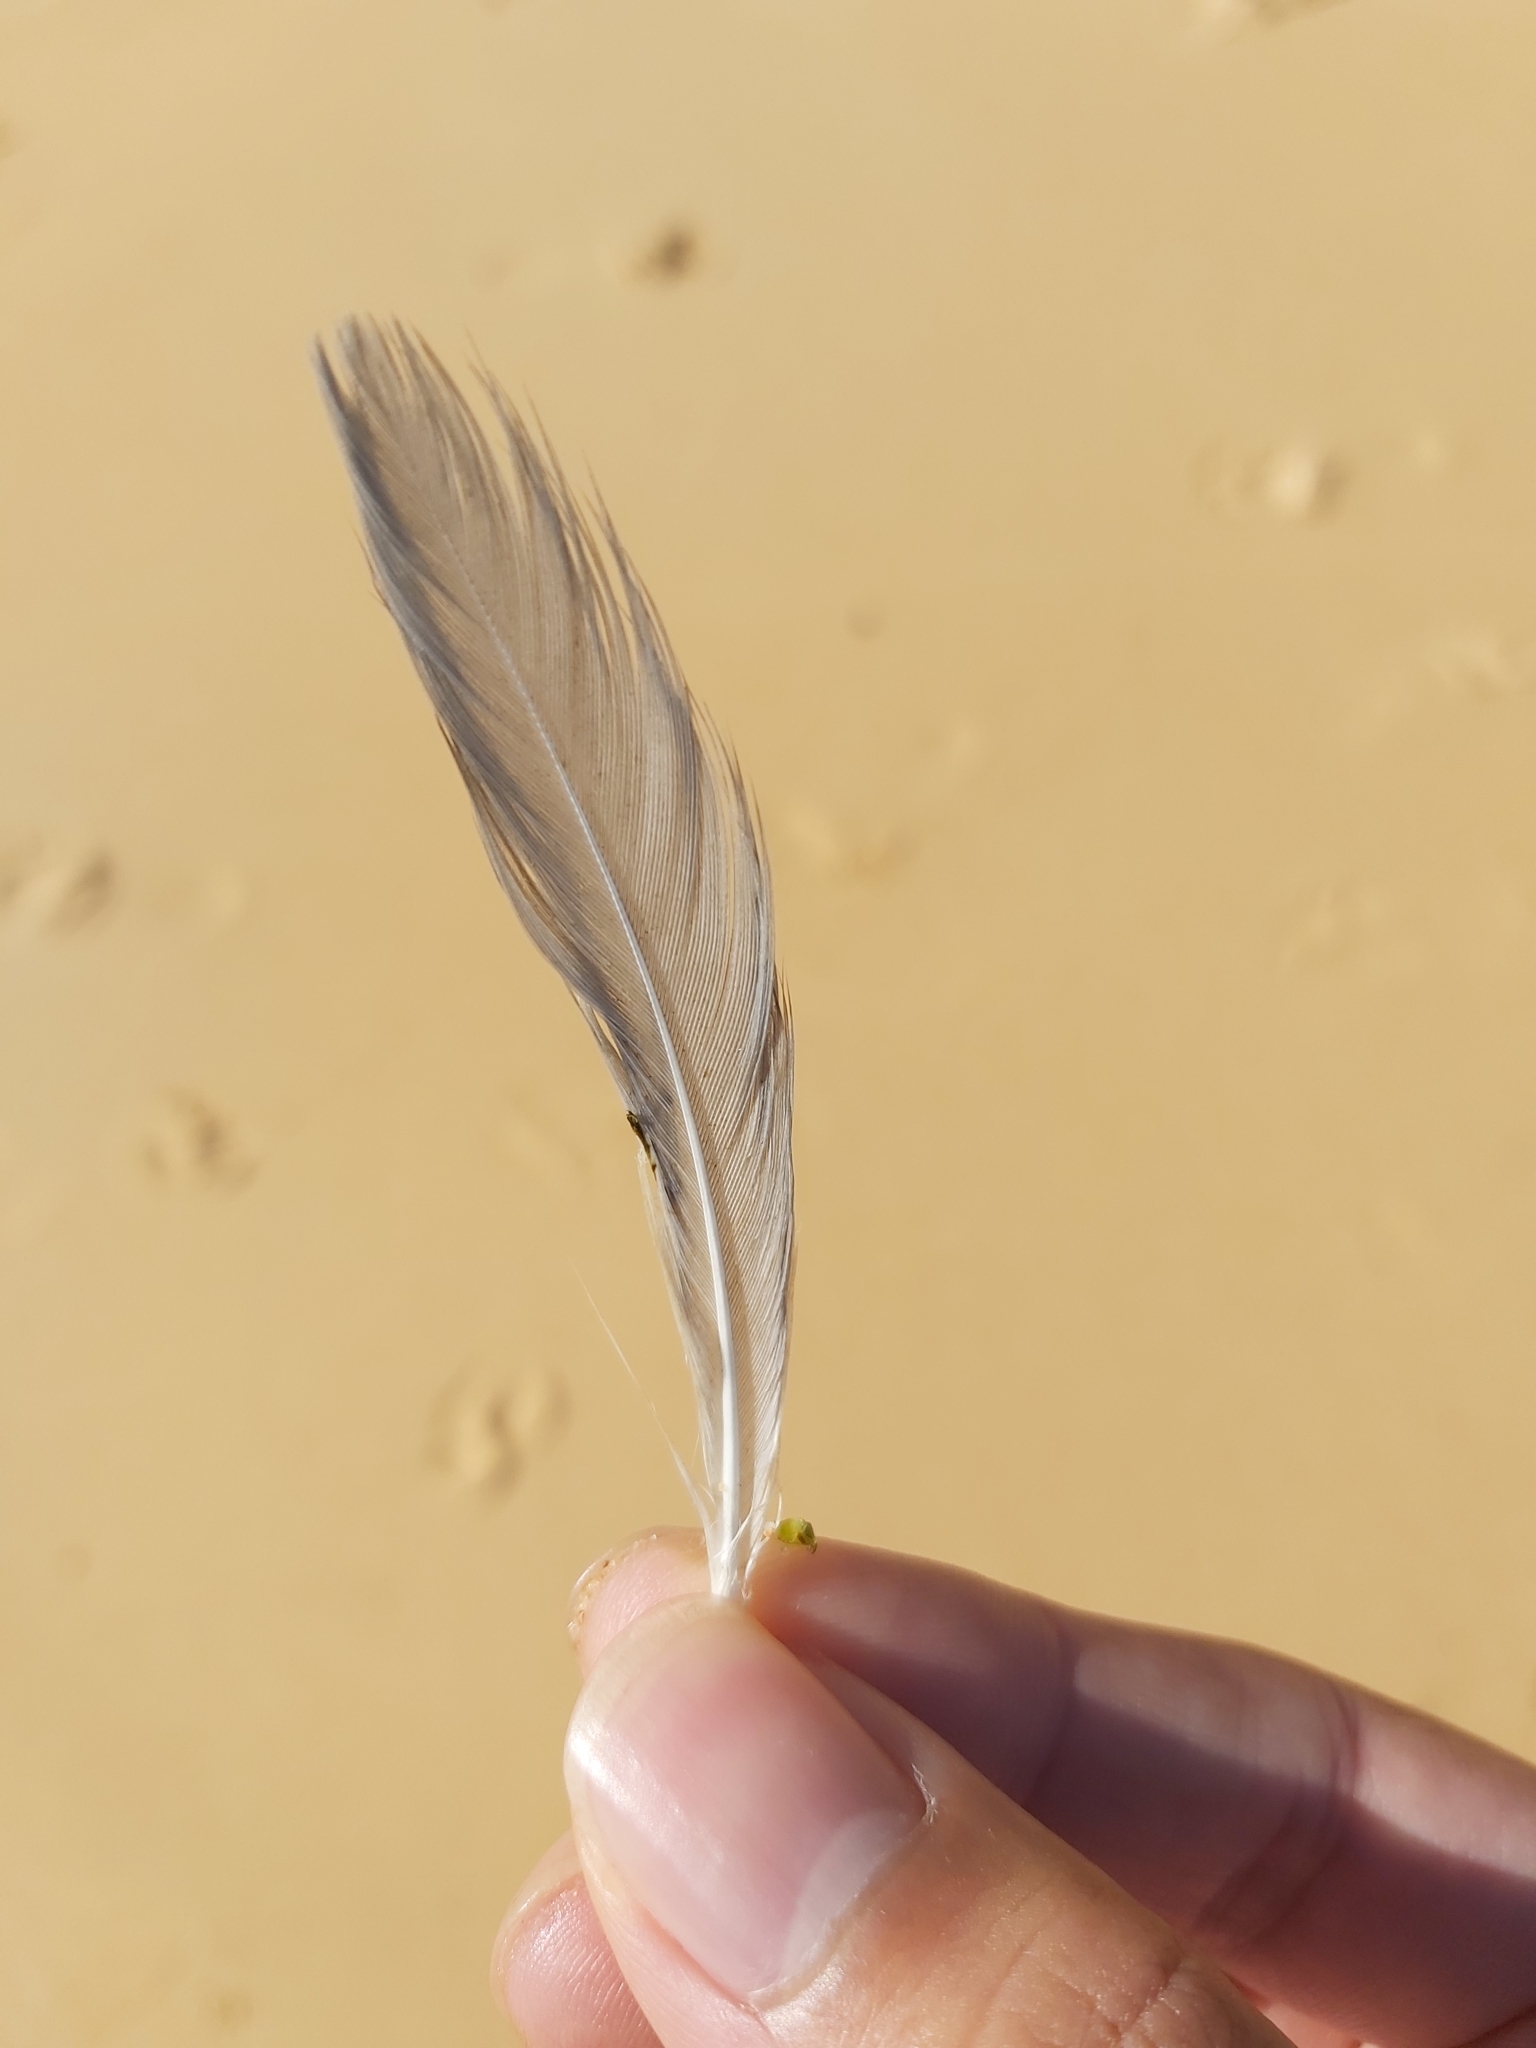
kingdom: Animalia
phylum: Chordata
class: Aves
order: Charadriiformes
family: Laridae
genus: Chroicocephalus
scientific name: Chroicocephalus novaehollandiae
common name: Silver gull
